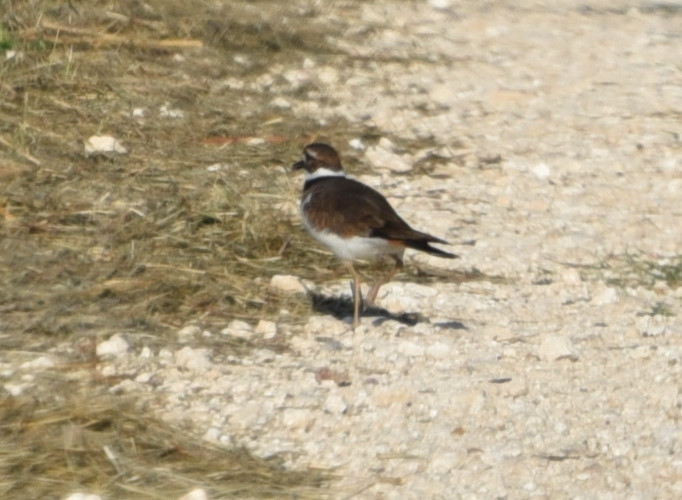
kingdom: Animalia
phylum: Chordata
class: Aves
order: Charadriiformes
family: Charadriidae
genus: Charadrius
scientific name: Charadrius vociferus
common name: Killdeer
